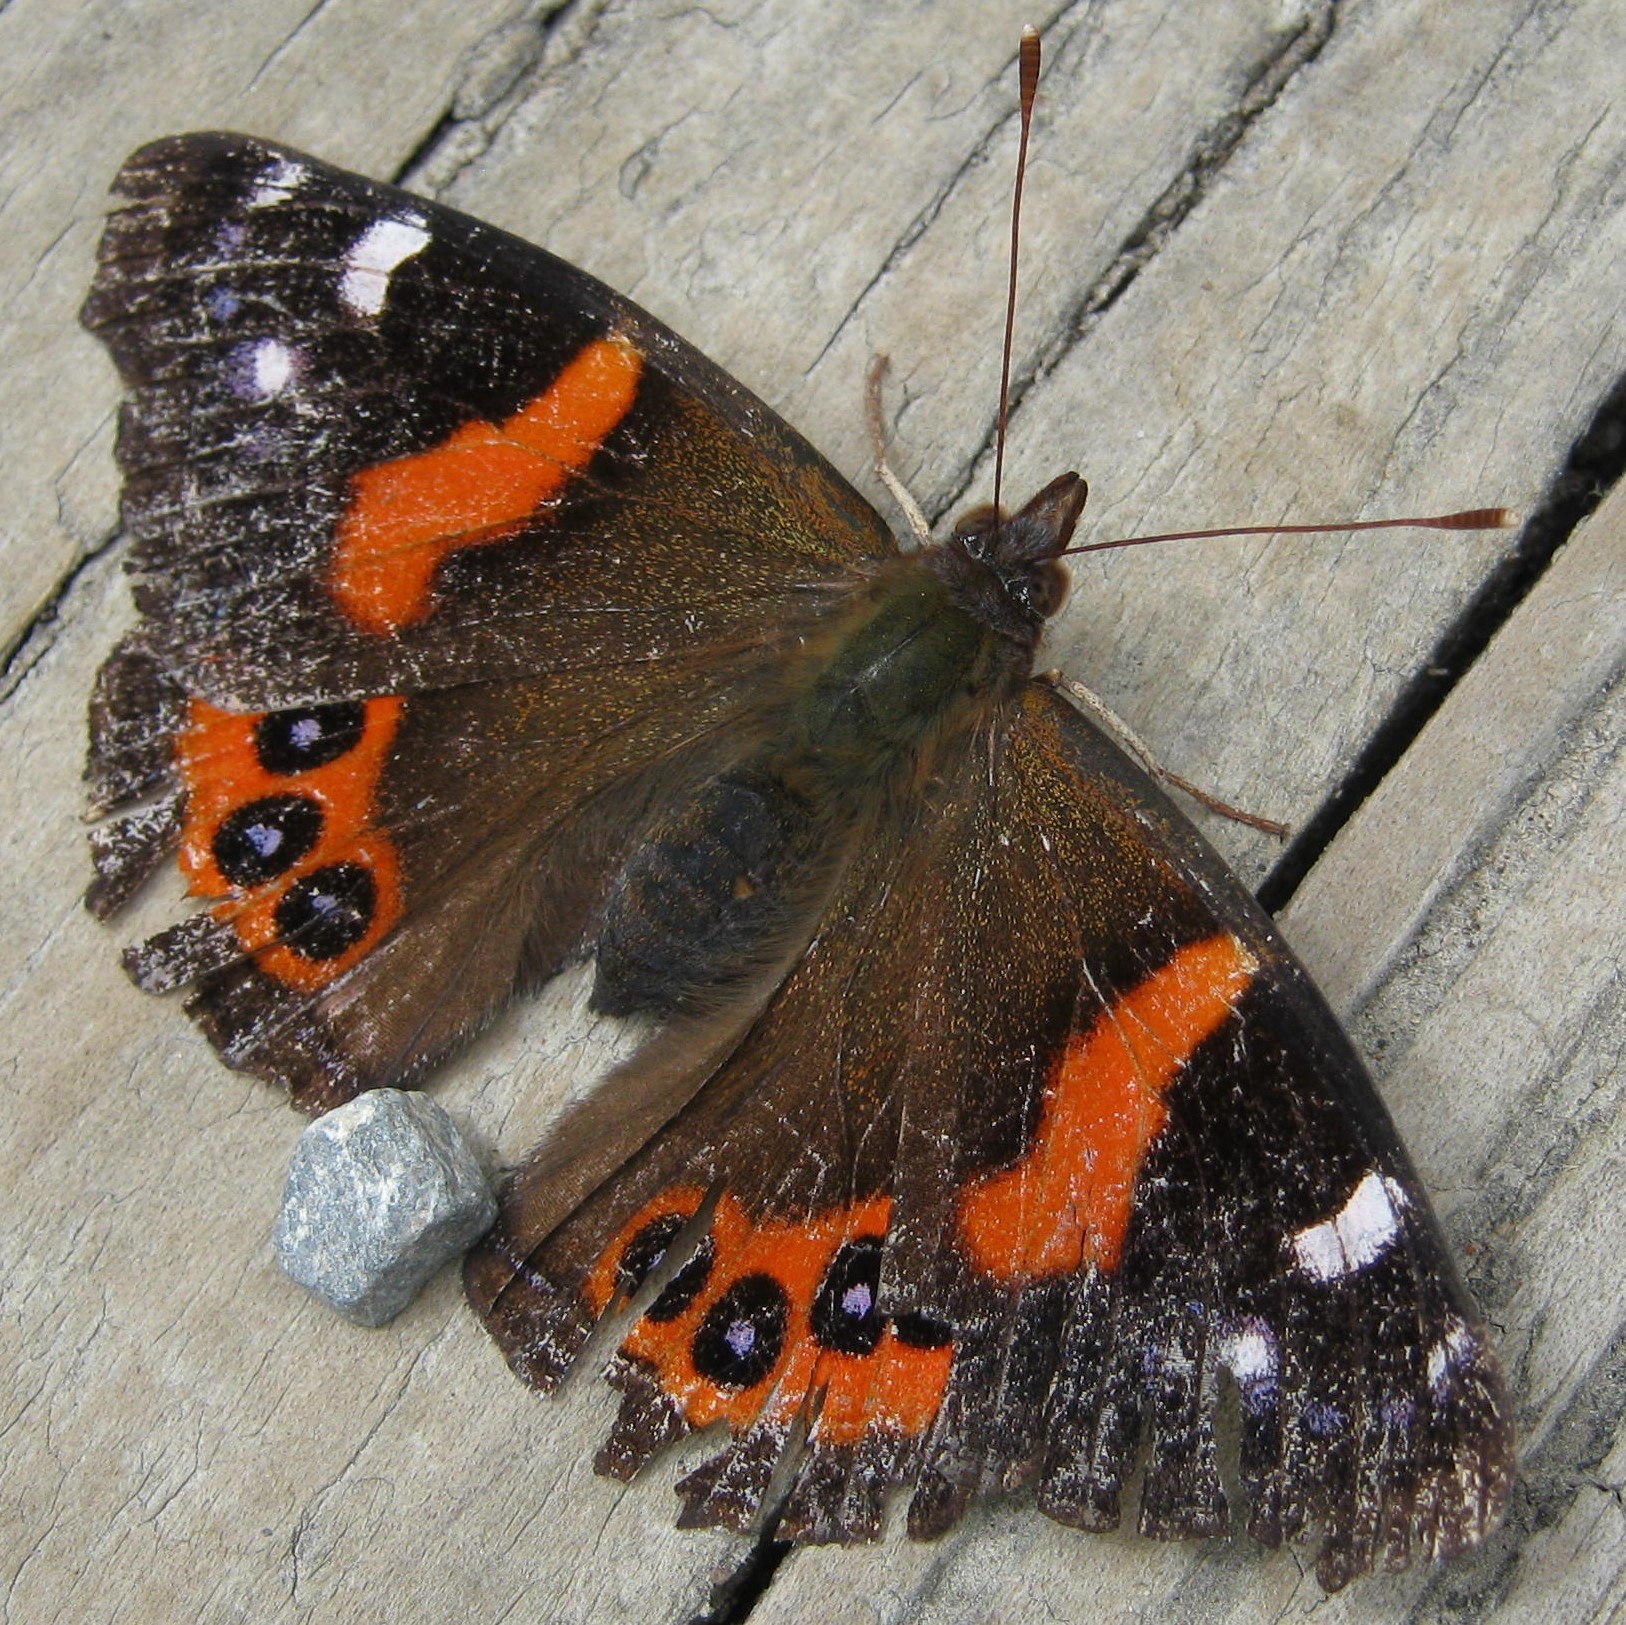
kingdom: Animalia
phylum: Arthropoda
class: Insecta
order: Lepidoptera
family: Nymphalidae
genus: Vanessa
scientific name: Vanessa gonerilla
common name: New zealand red admiral
